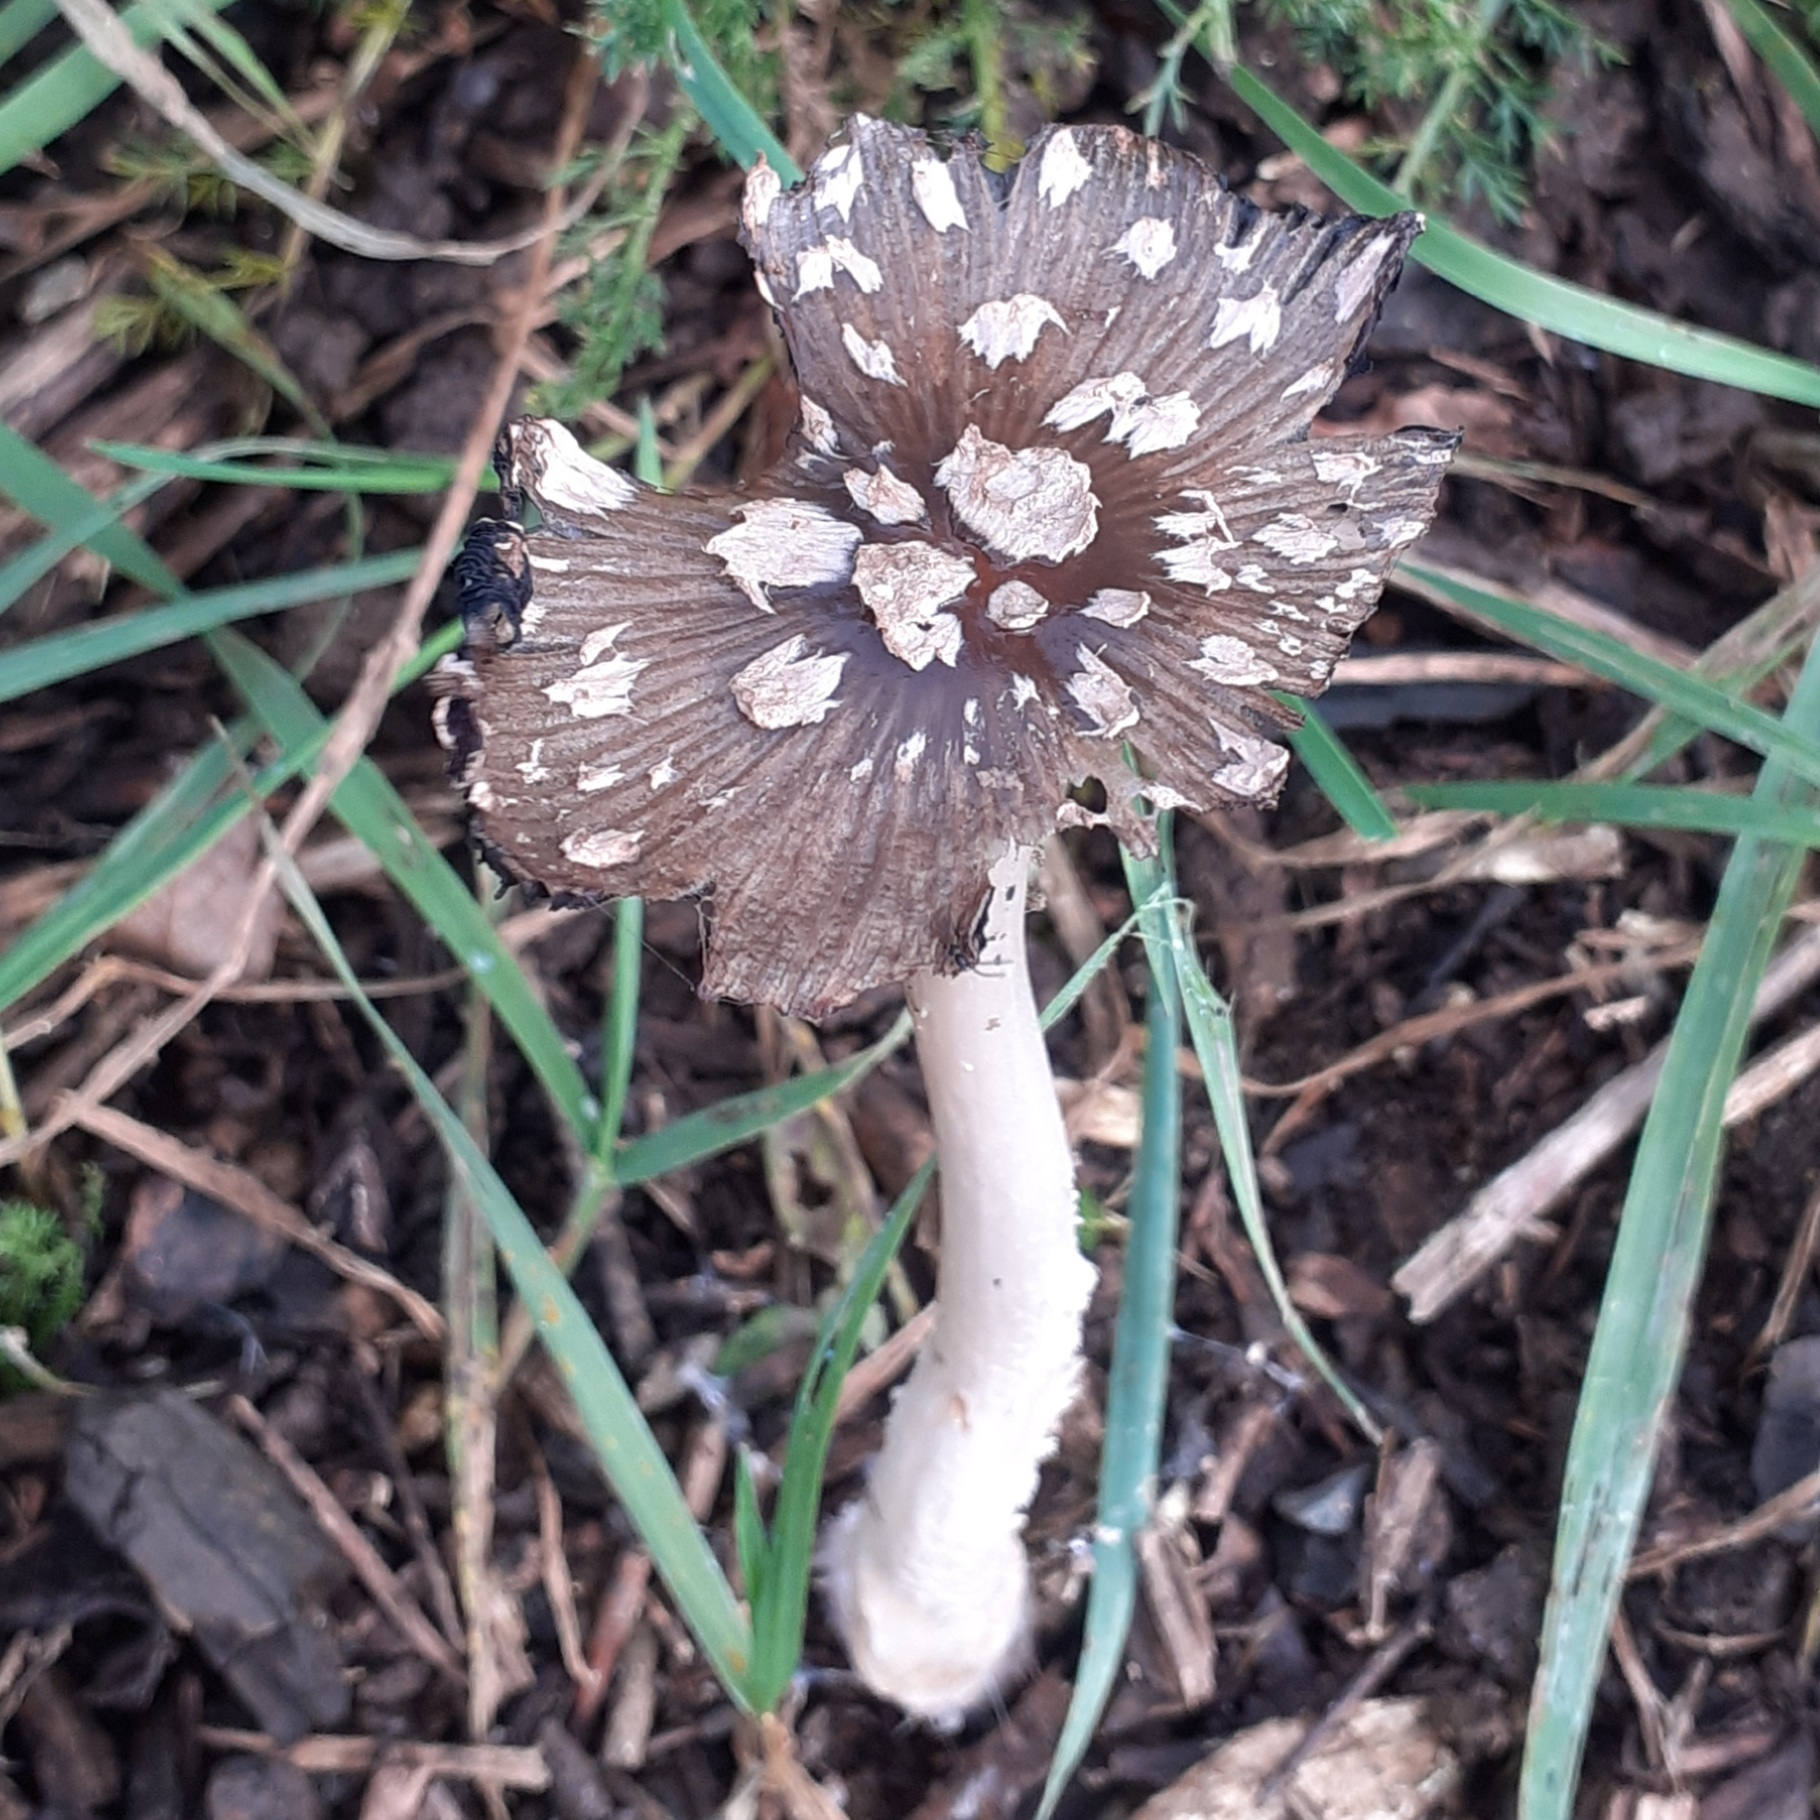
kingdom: Fungi
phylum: Basidiomycota
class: Agaricomycetes
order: Agaricales
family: Psathyrellaceae
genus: Coprinopsis
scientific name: Coprinopsis picacea
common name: Magpie inkcap
